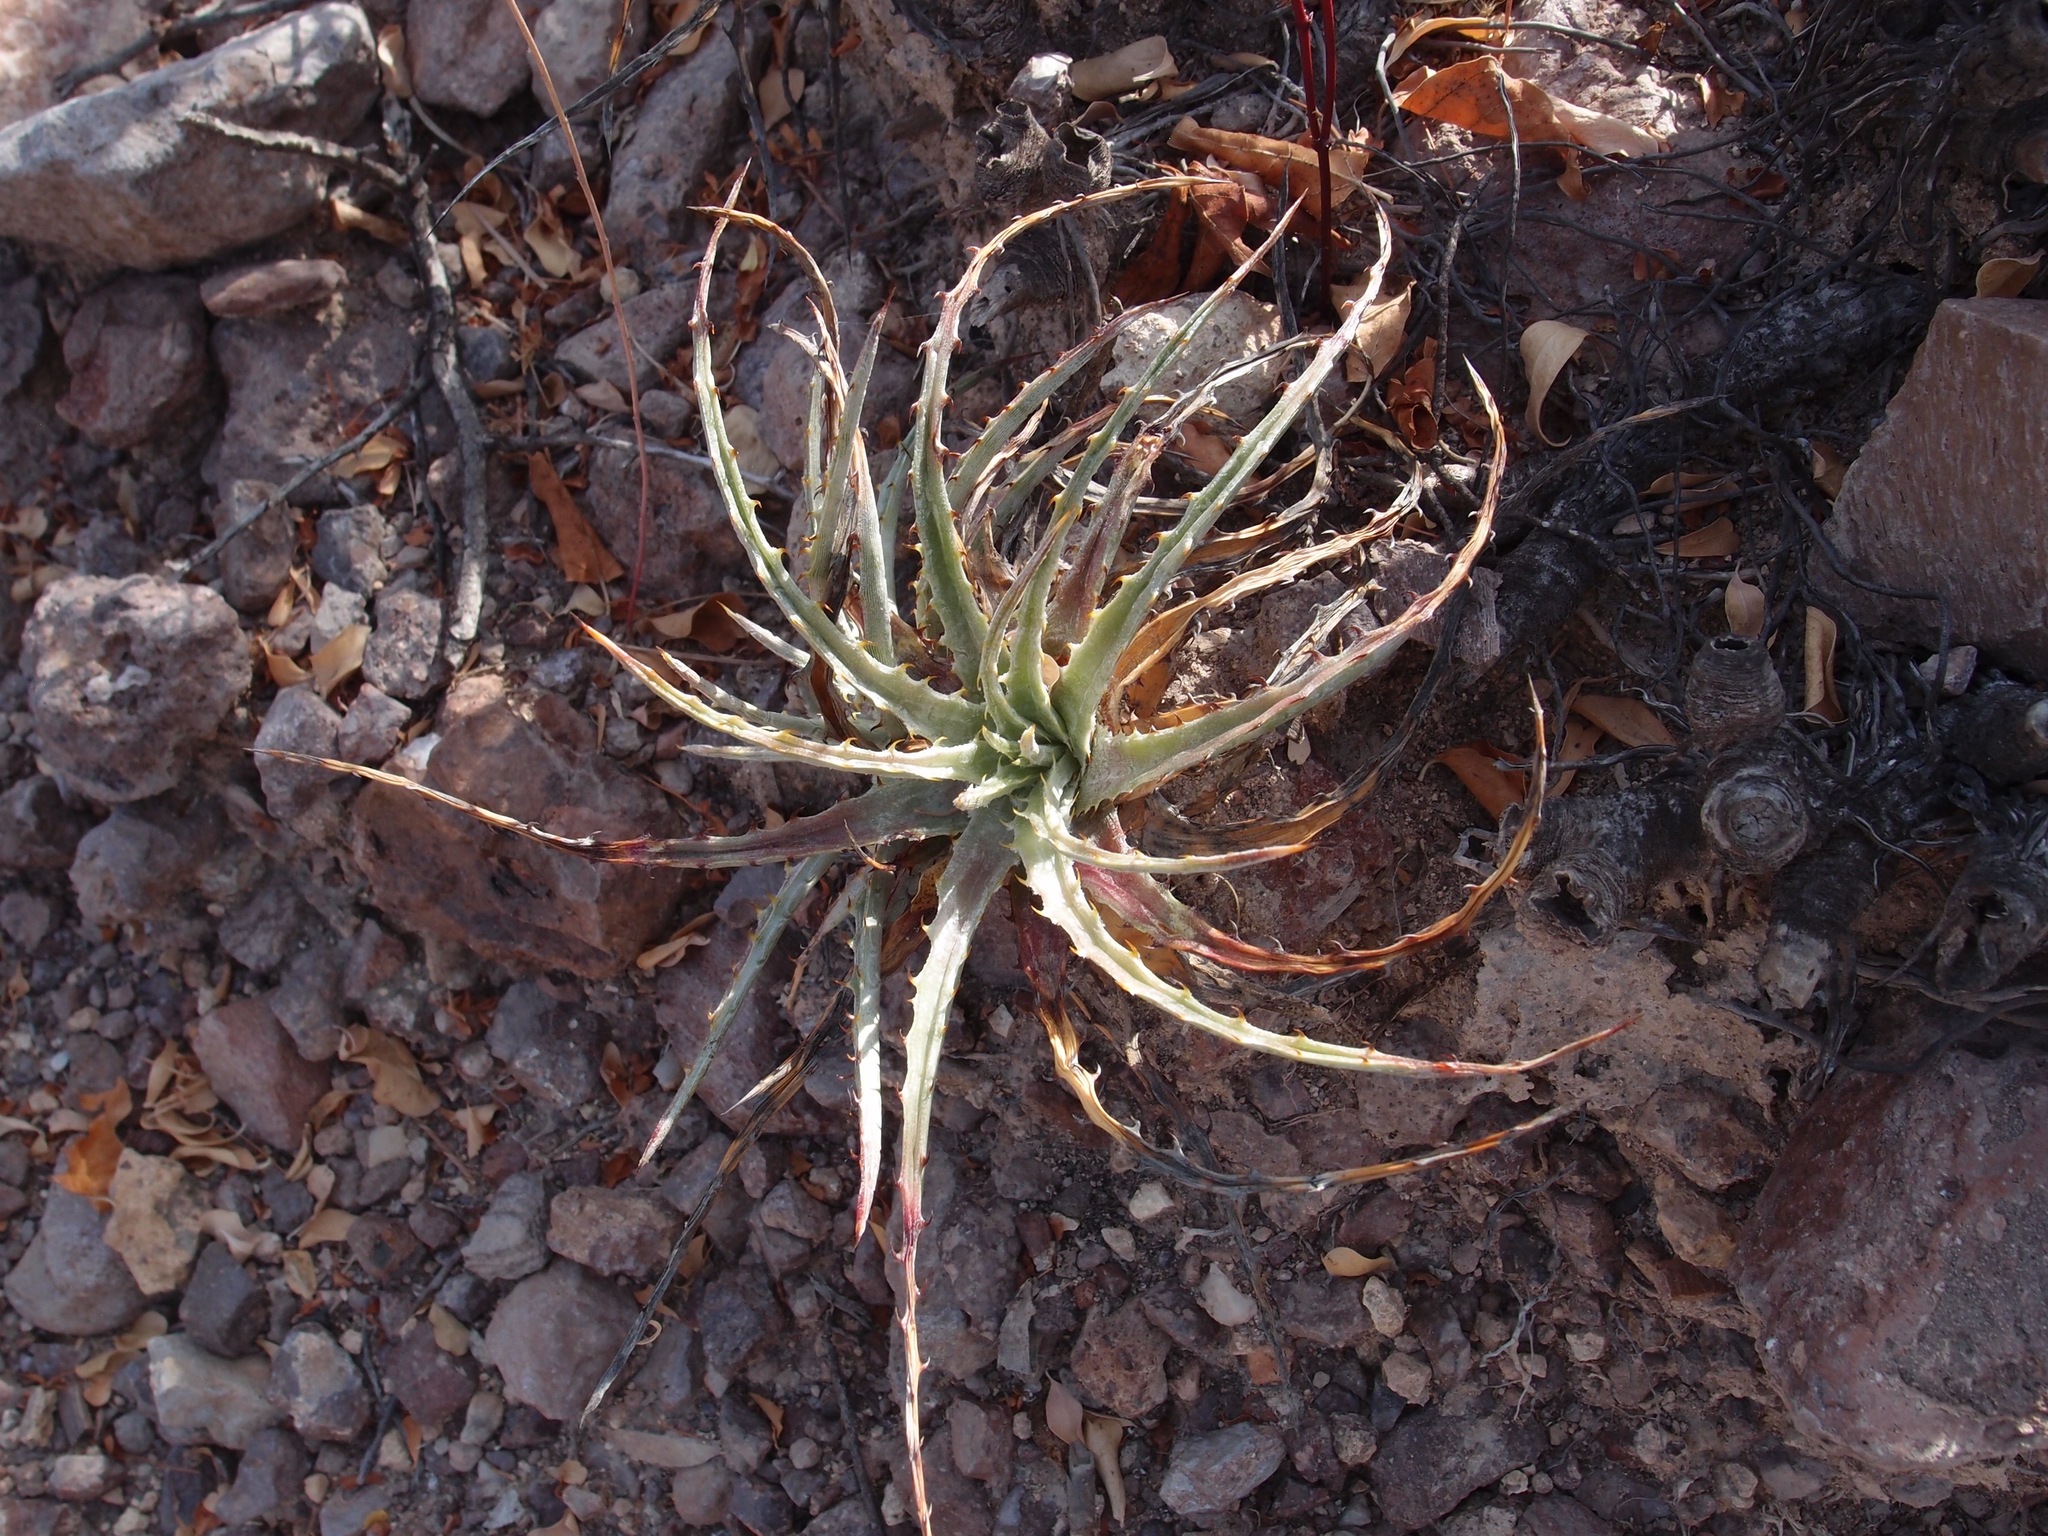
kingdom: Plantae
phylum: Tracheophyta
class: Liliopsida
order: Poales
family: Bromeliaceae
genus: Hechtia
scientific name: Hechtia montana
